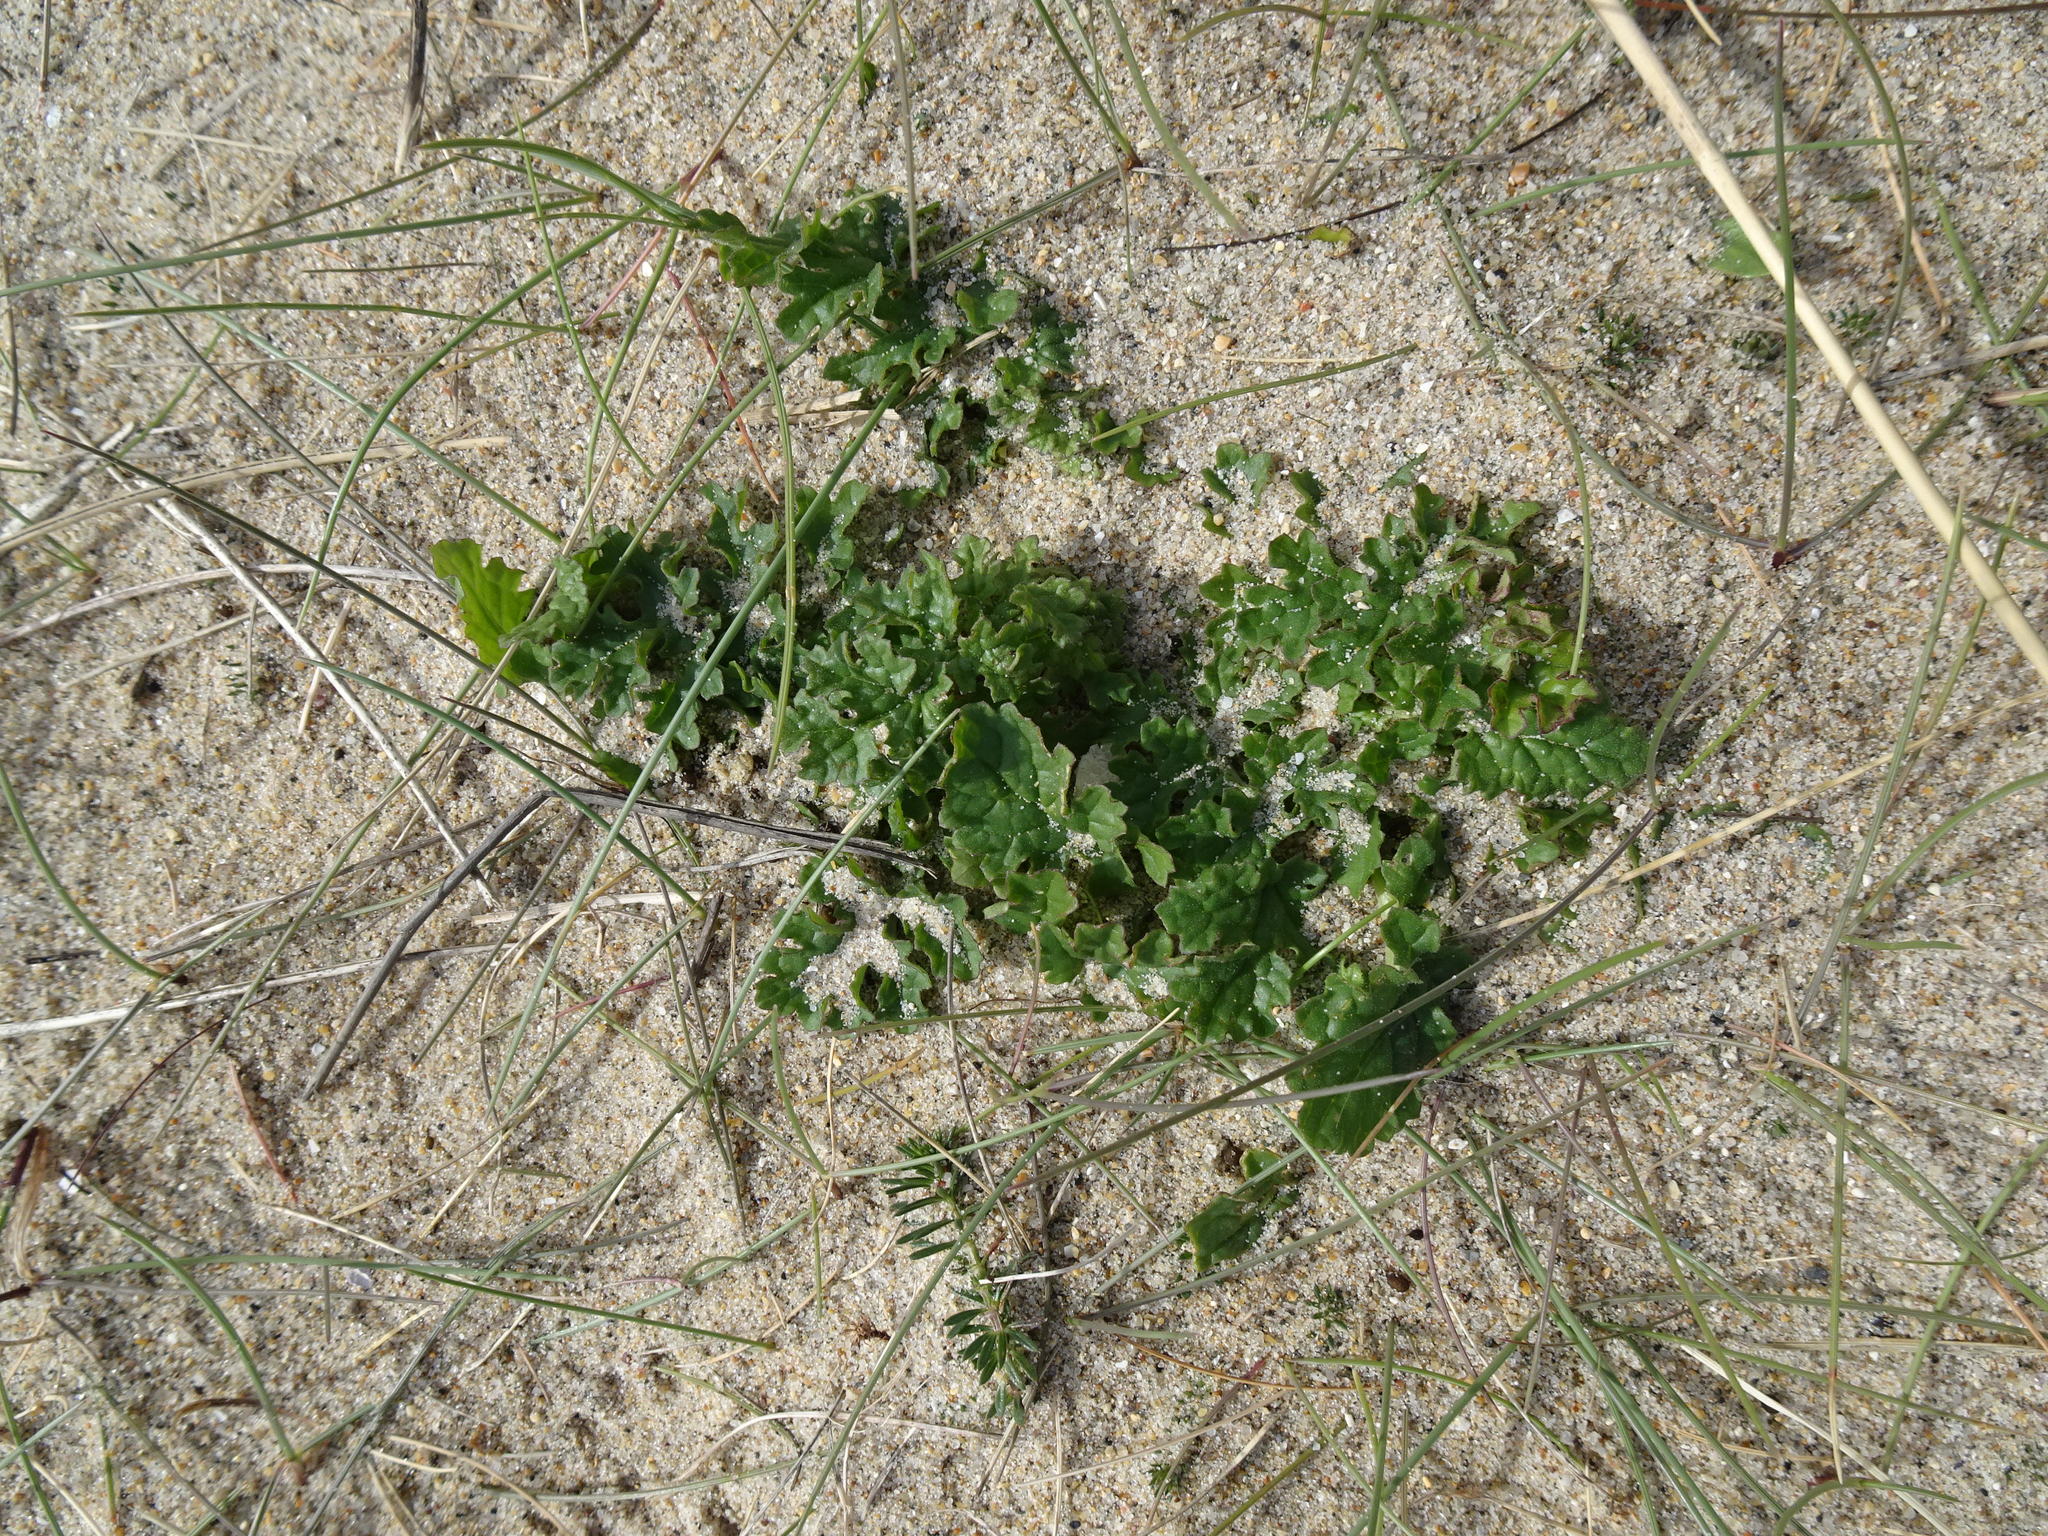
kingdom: Plantae
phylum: Tracheophyta
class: Magnoliopsida
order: Asterales
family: Asteraceae
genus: Jacobaea
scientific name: Jacobaea vulgaris
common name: Stinking willie
